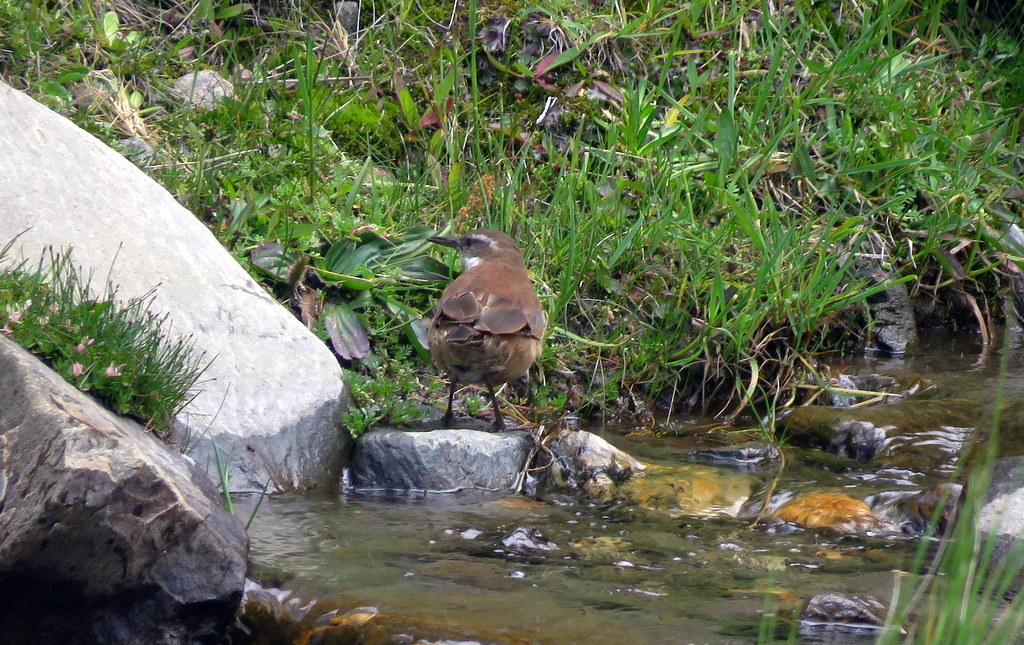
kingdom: Animalia
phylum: Chordata
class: Aves
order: Passeriformes
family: Furnariidae
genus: Cinclodes
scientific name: Cinclodes atacamensis
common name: White-winged cinclodes
